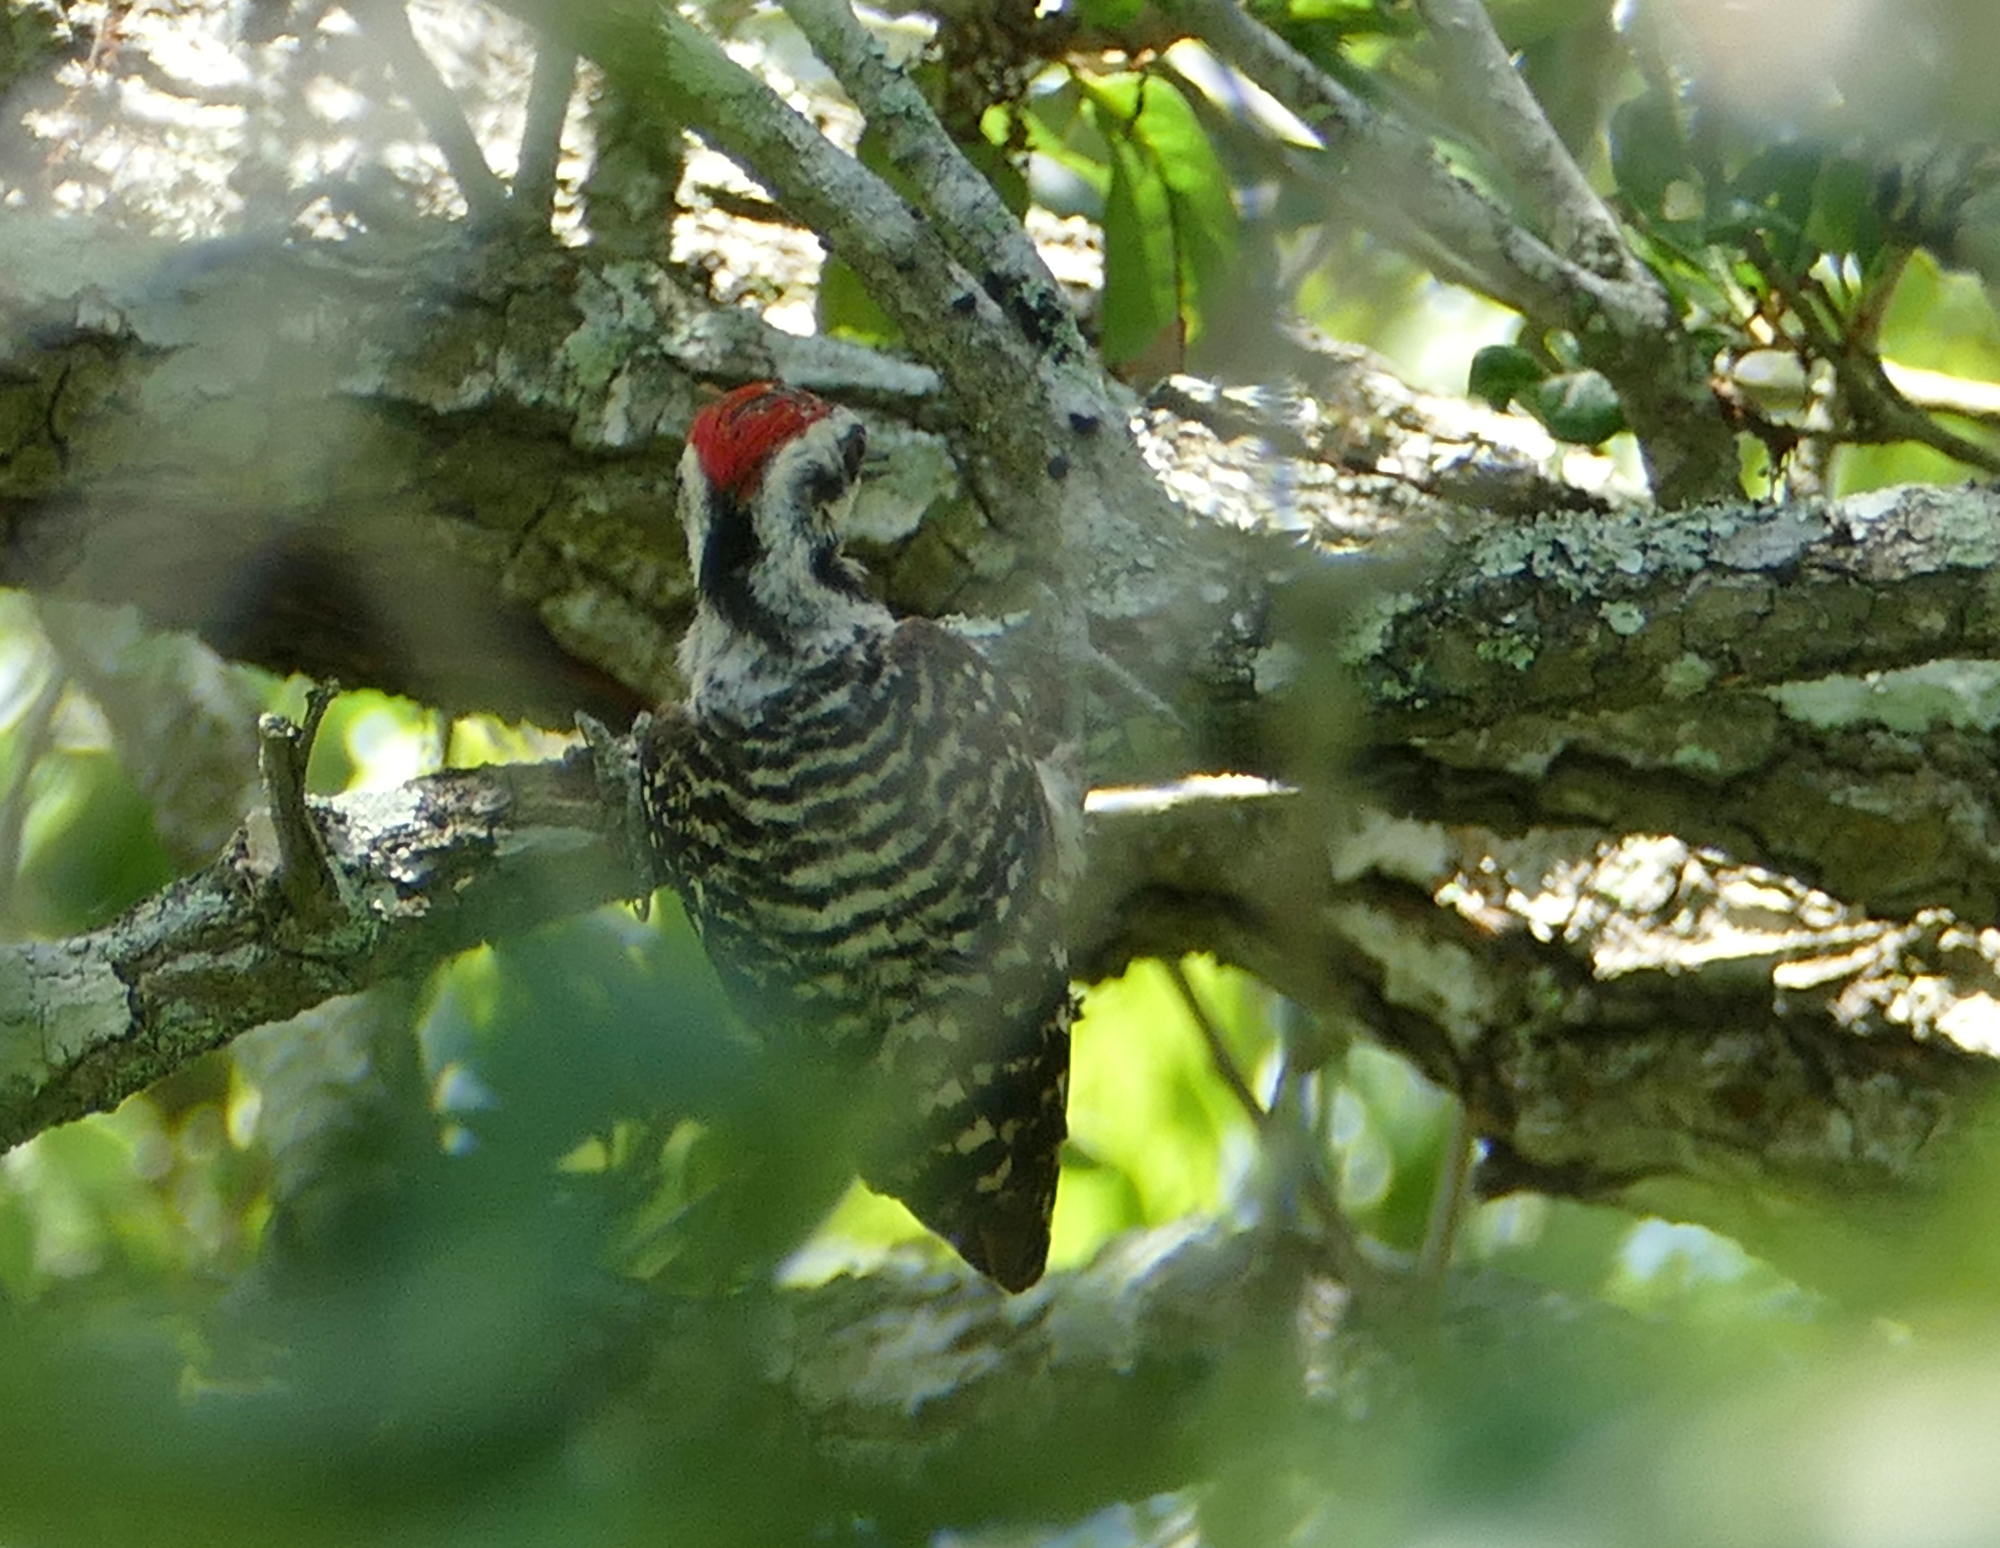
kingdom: Animalia
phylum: Chordata
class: Aves
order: Piciformes
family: Picidae
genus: Dryobates
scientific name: Dryobates scalaris
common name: Ladder-backed woodpecker
